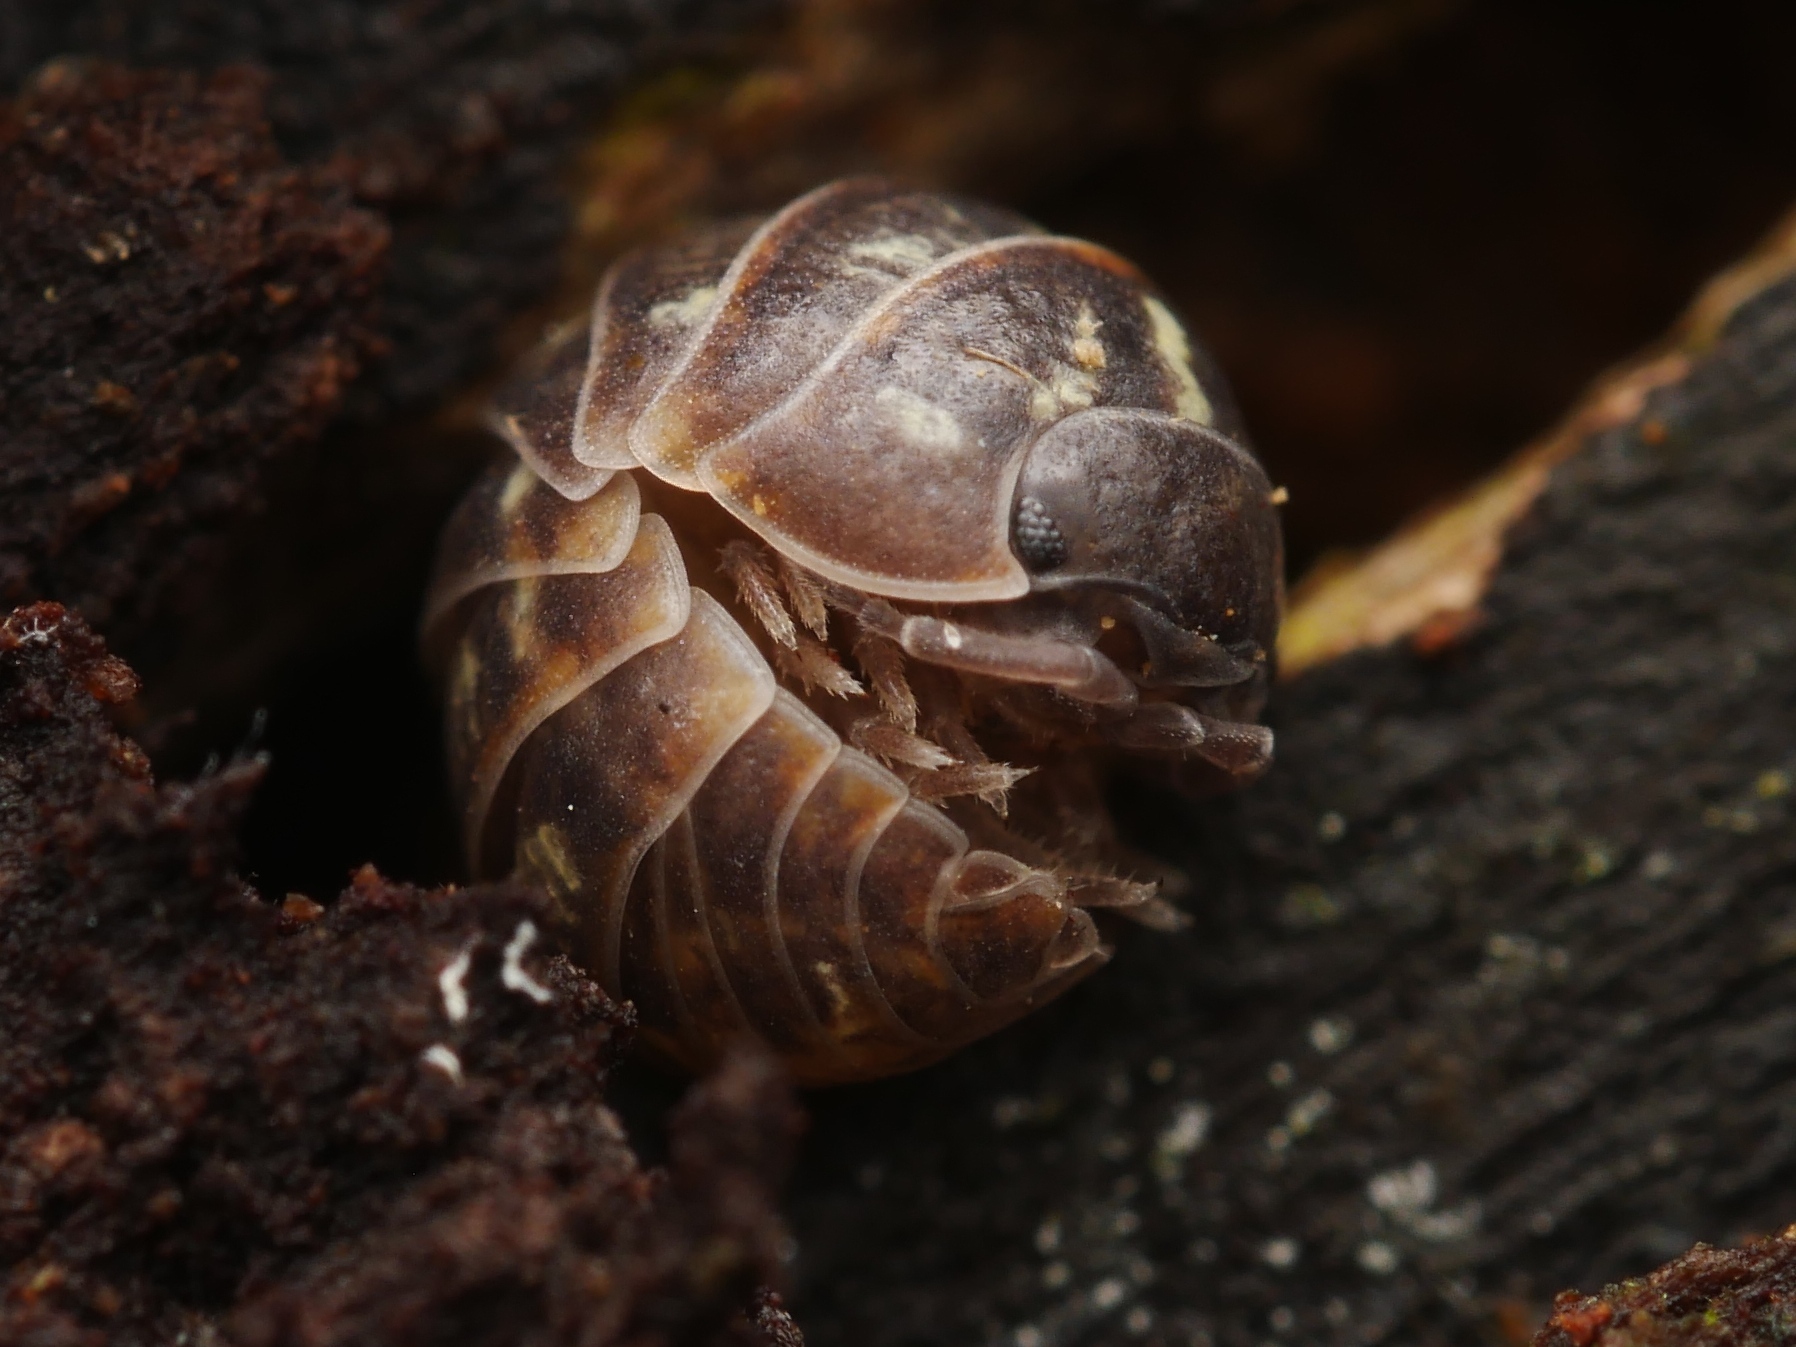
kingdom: Animalia
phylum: Arthropoda
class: Malacostraca
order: Isopoda
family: Armadillidiidae
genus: Armadillidium
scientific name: Armadillidium vulgare
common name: Common pill woodlouse
